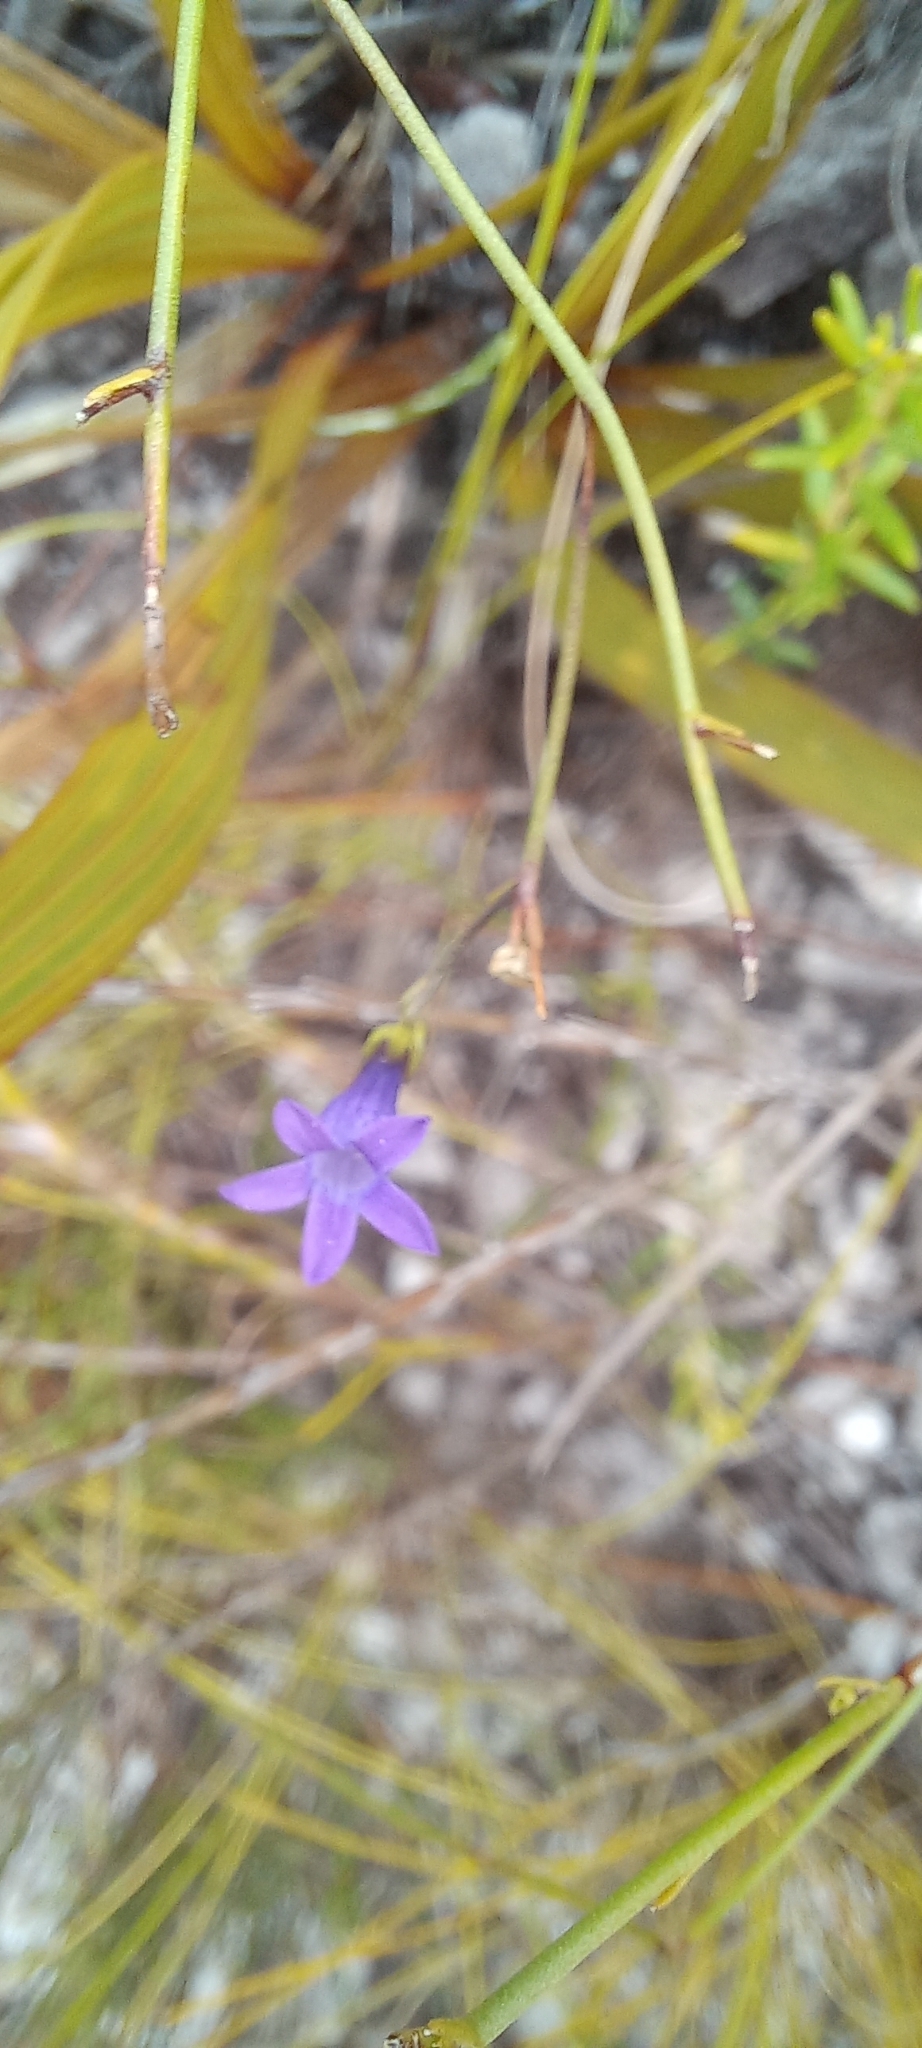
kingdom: Plantae
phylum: Tracheophyta
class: Magnoliopsida
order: Asterales
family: Campanulaceae
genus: Siphocodon
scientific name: Siphocodon spartioides
